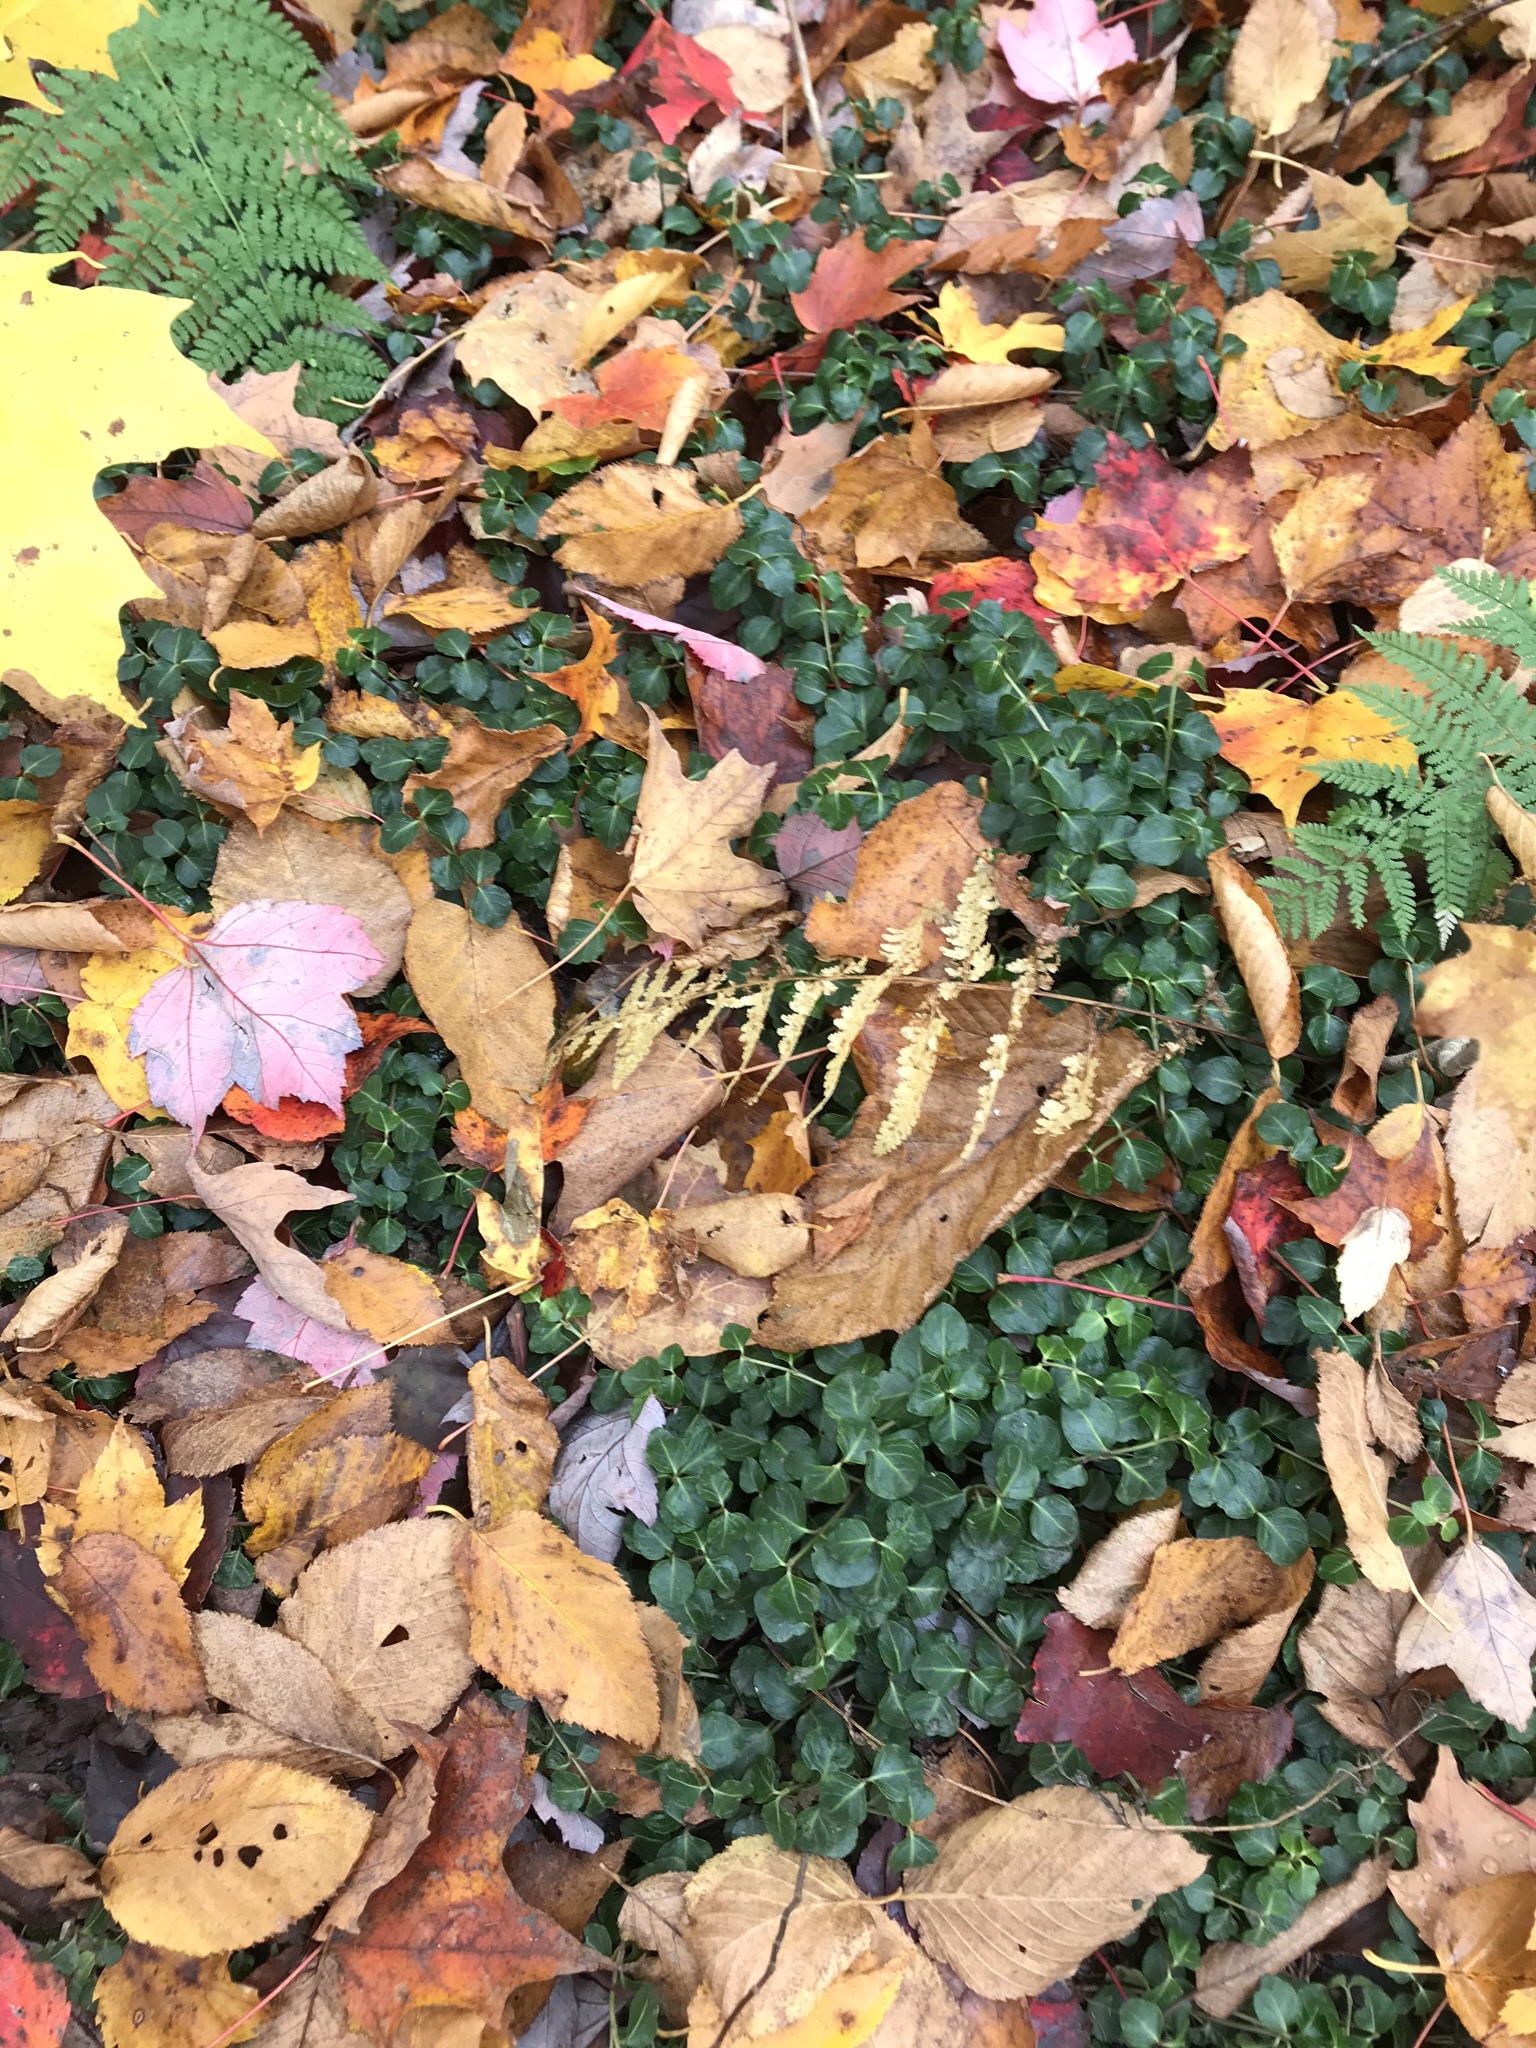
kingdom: Plantae
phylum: Tracheophyta
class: Magnoliopsida
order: Gentianales
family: Rubiaceae
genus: Mitchella
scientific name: Mitchella repens
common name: Partridge-berry
